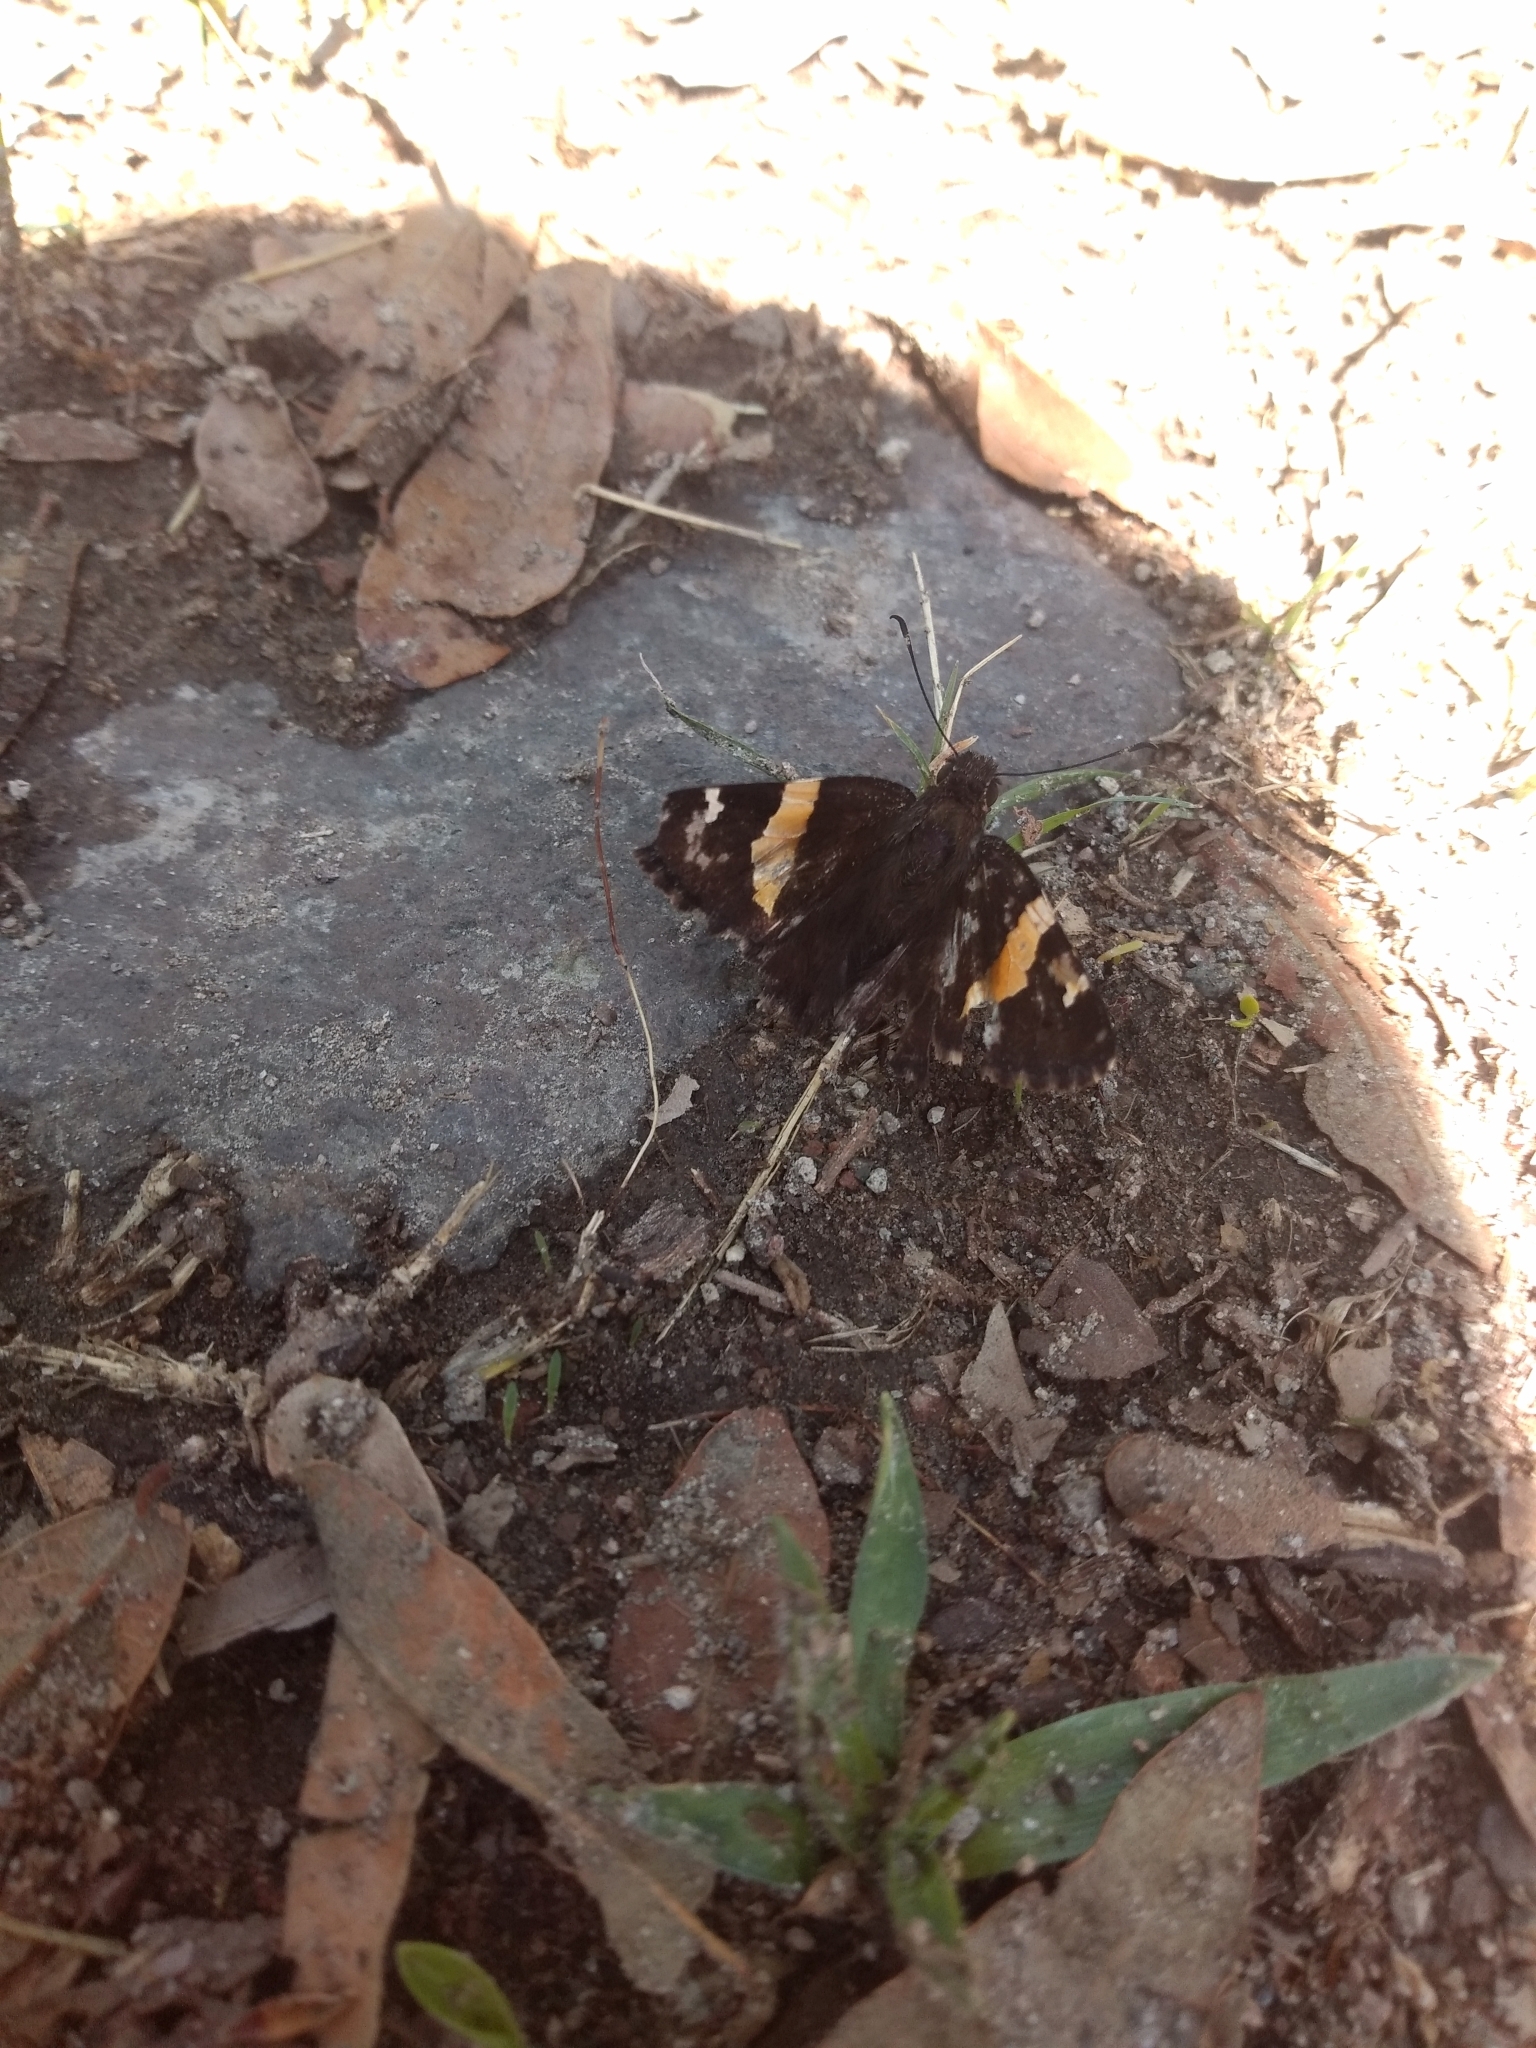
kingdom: Animalia
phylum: Arthropoda
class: Insecta
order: Lepidoptera
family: Hesperiidae
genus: Thorybes
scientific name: Thorybes pseudocellus
